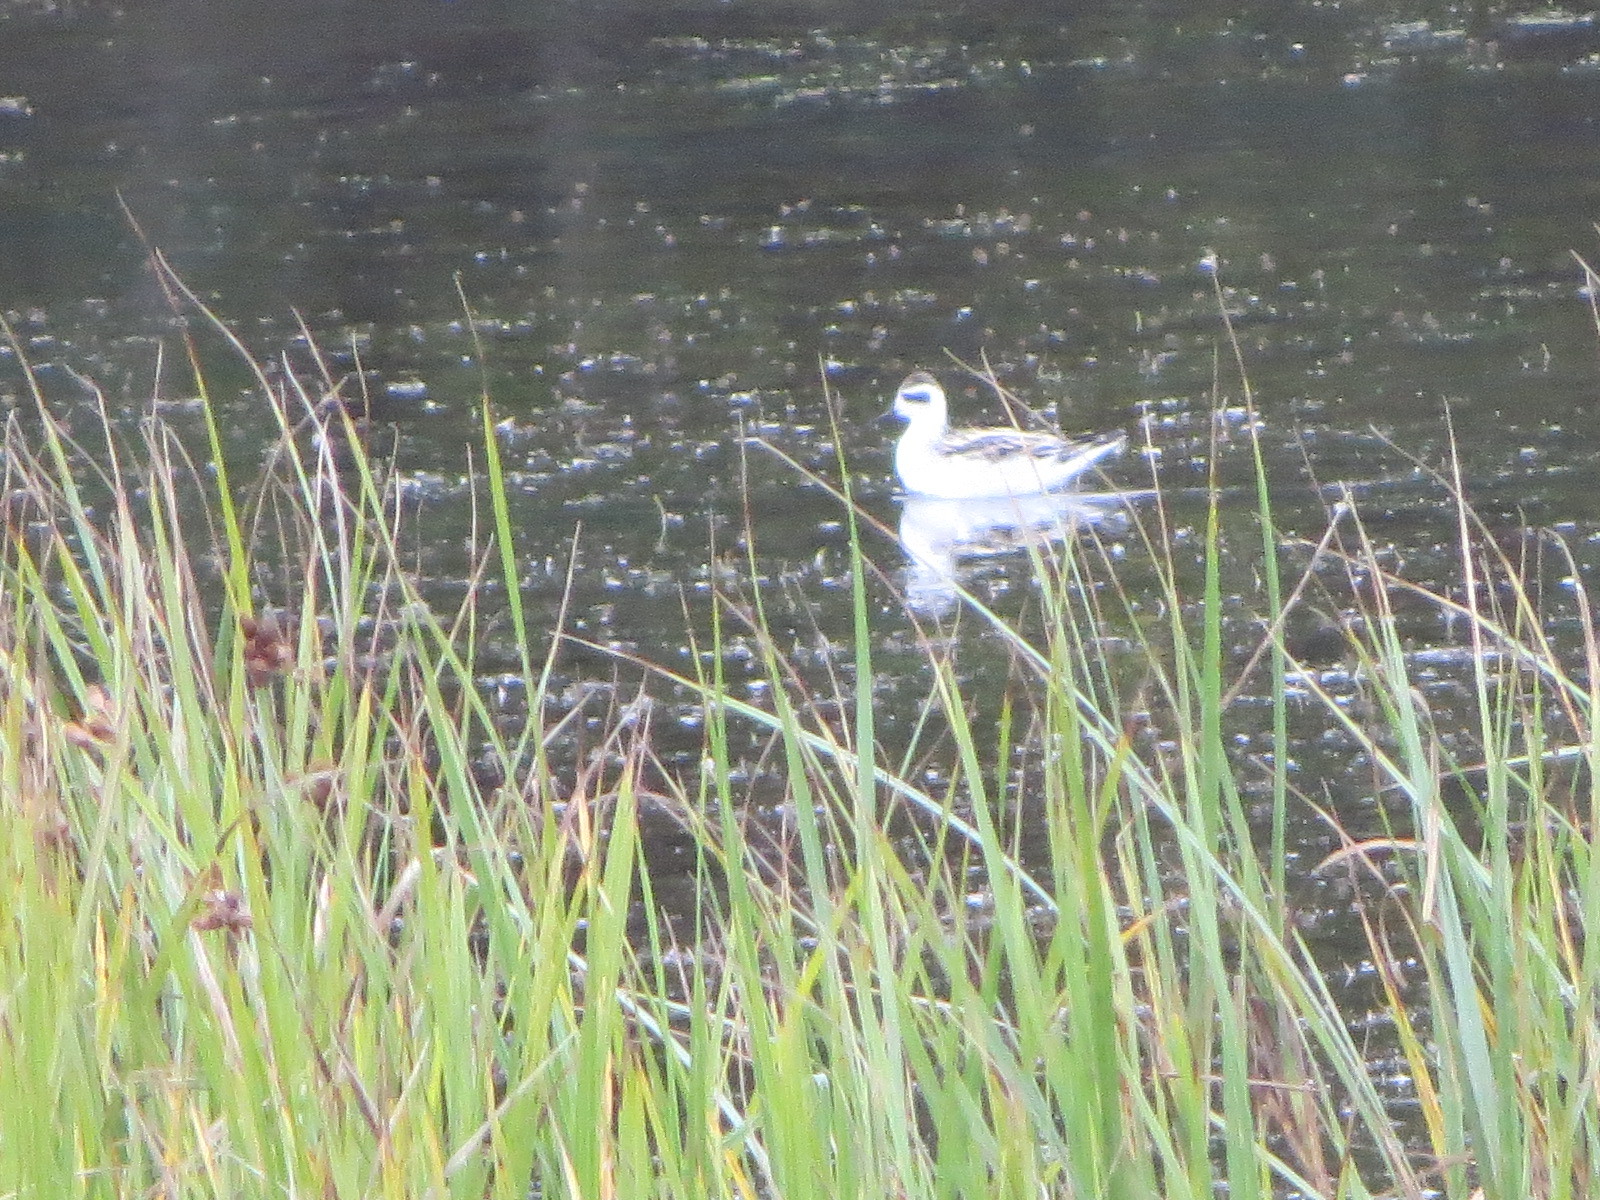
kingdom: Animalia
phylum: Chordata
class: Aves
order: Charadriiformes
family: Scolopacidae
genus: Phalaropus
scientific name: Phalaropus lobatus
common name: Red-necked phalarope
